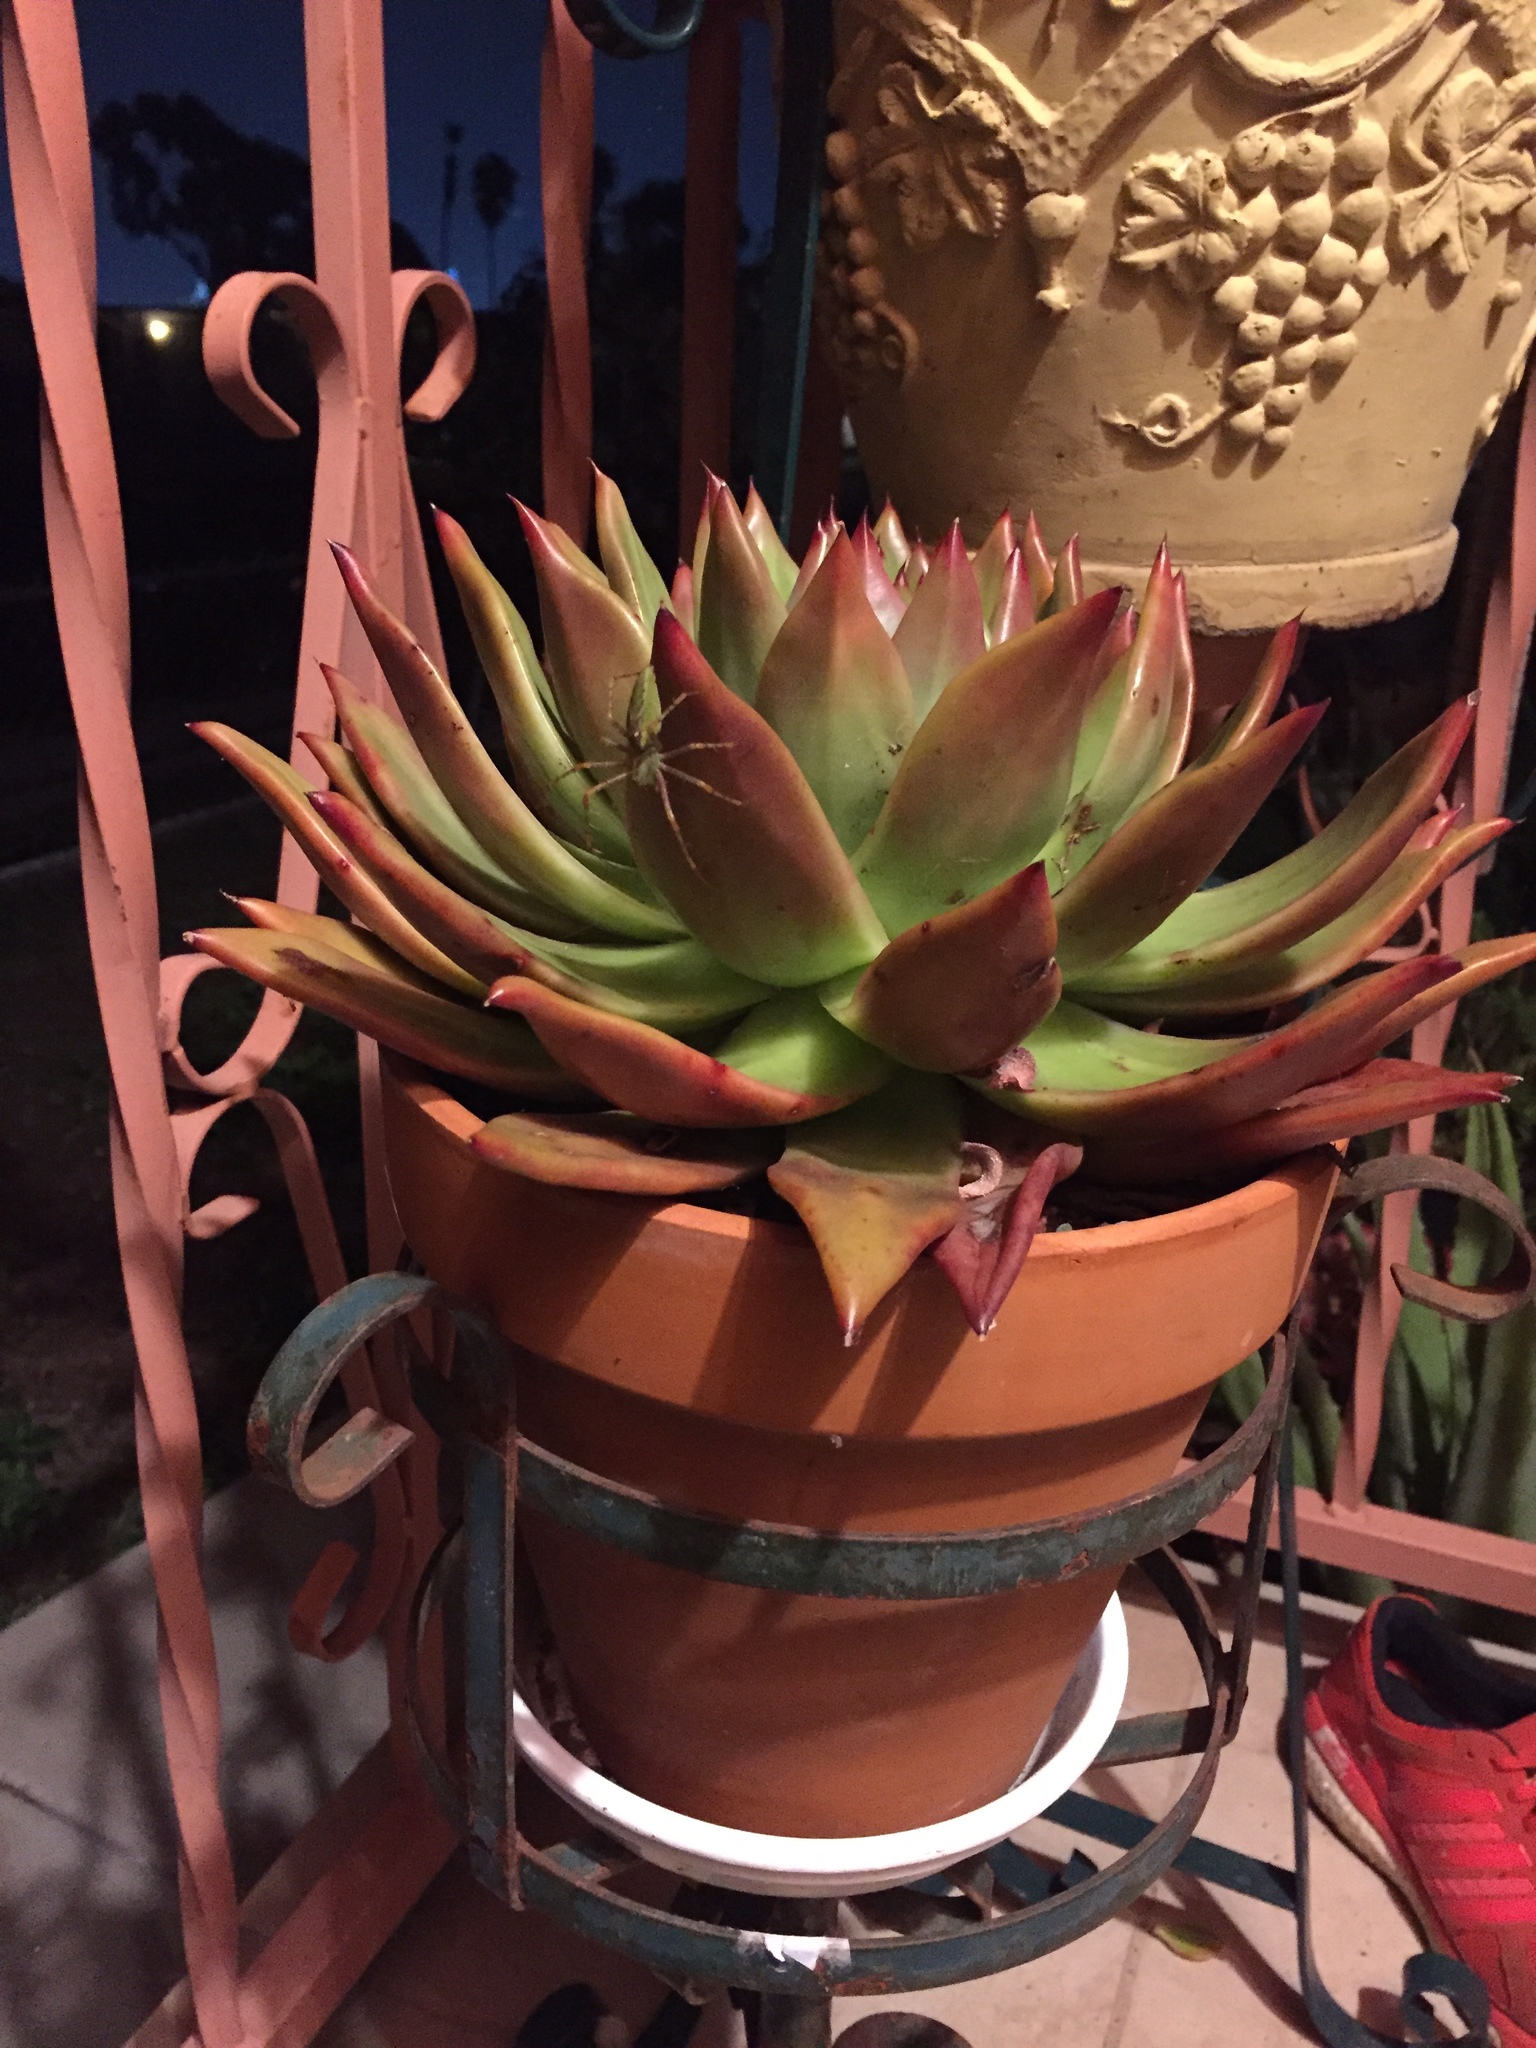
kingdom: Animalia
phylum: Arthropoda
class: Arachnida
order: Araneae
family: Oxyopidae
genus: Peucetia
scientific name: Peucetia viridans
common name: Lynx spiders
